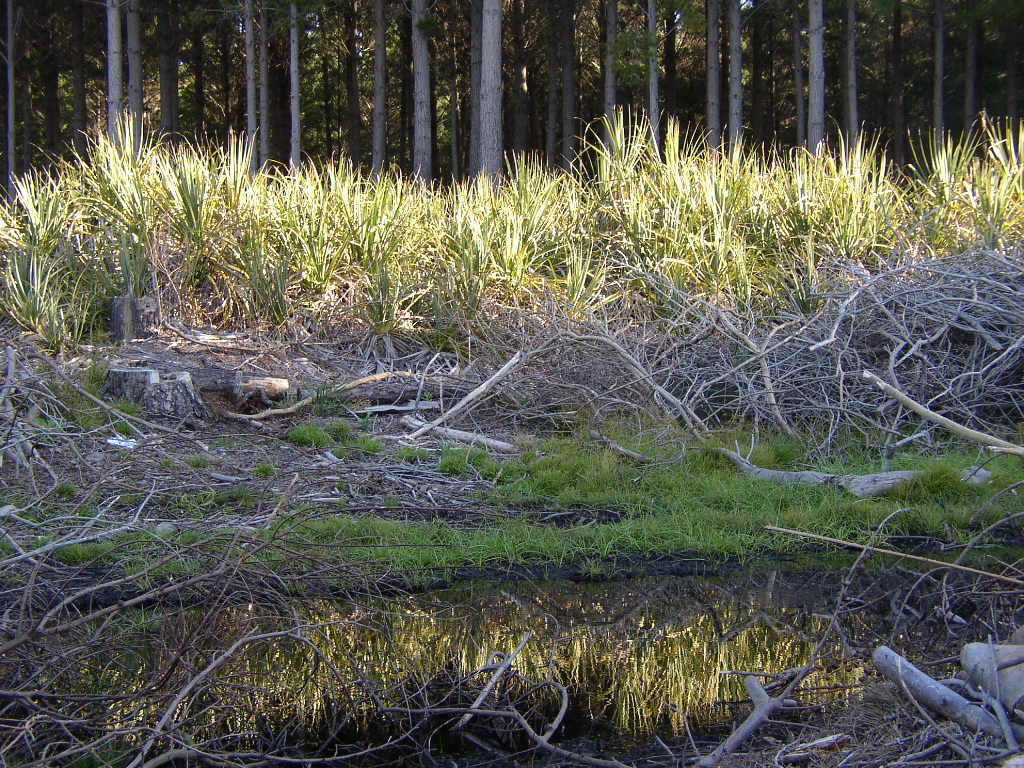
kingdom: Plantae
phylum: Tracheophyta
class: Liliopsida
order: Poales
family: Thurniaceae
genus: Prionium
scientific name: Prionium serratum
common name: Palmiet
